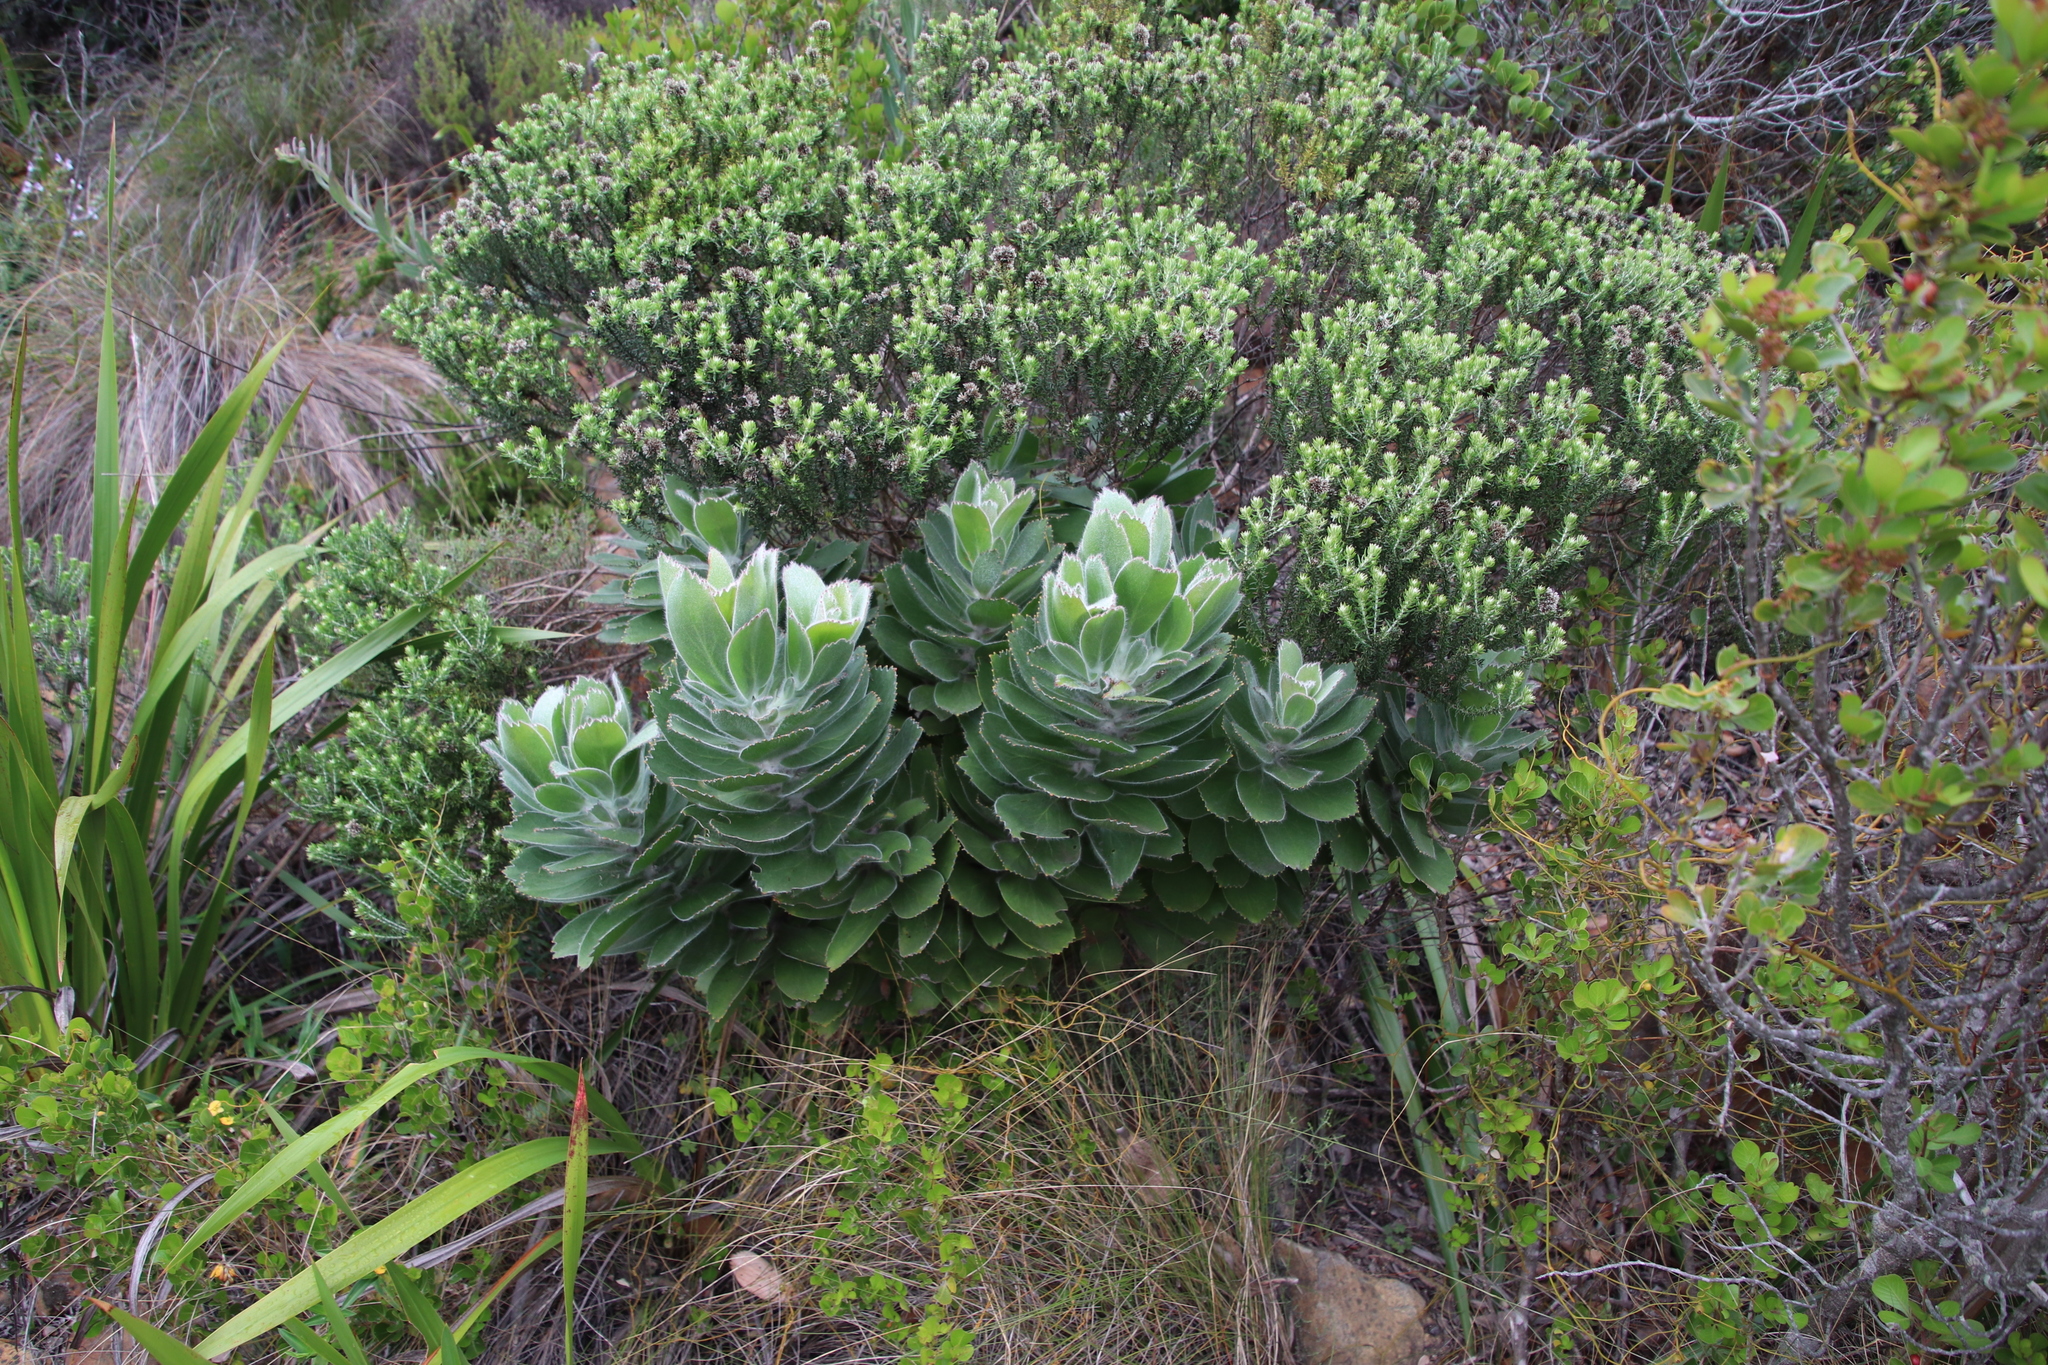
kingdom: Plantae
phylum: Tracheophyta
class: Magnoliopsida
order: Proteales
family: Proteaceae
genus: Leucospermum
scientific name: Leucospermum conocarpodendron
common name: Tree pincushion
